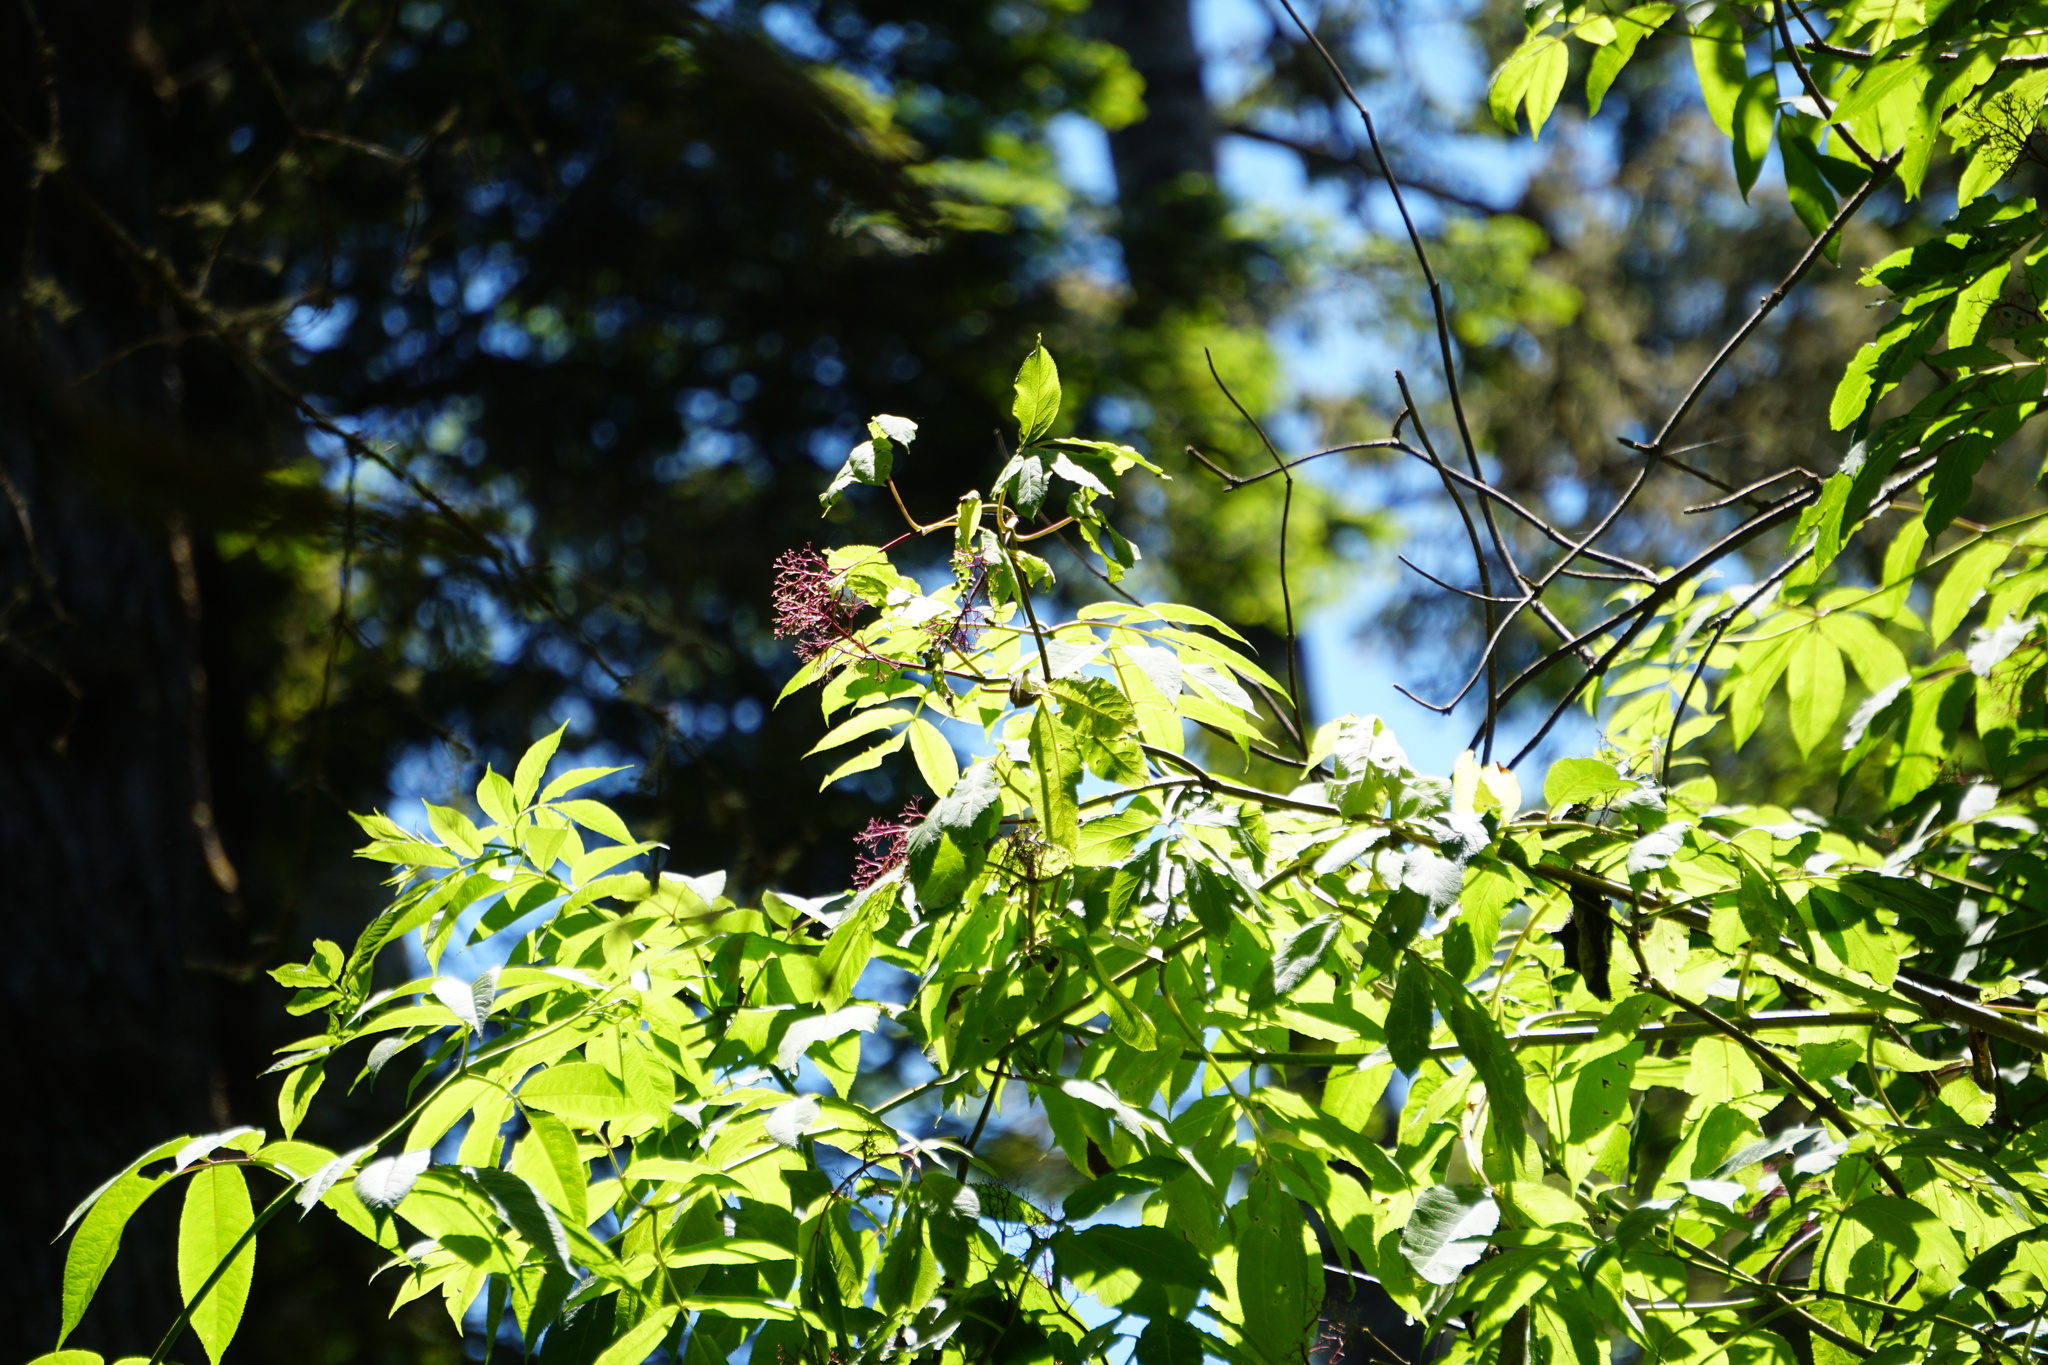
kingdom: Plantae
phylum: Tracheophyta
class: Magnoliopsida
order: Dipsacales
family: Viburnaceae
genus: Sambucus
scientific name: Sambucus racemosa
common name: Red-berried elder
